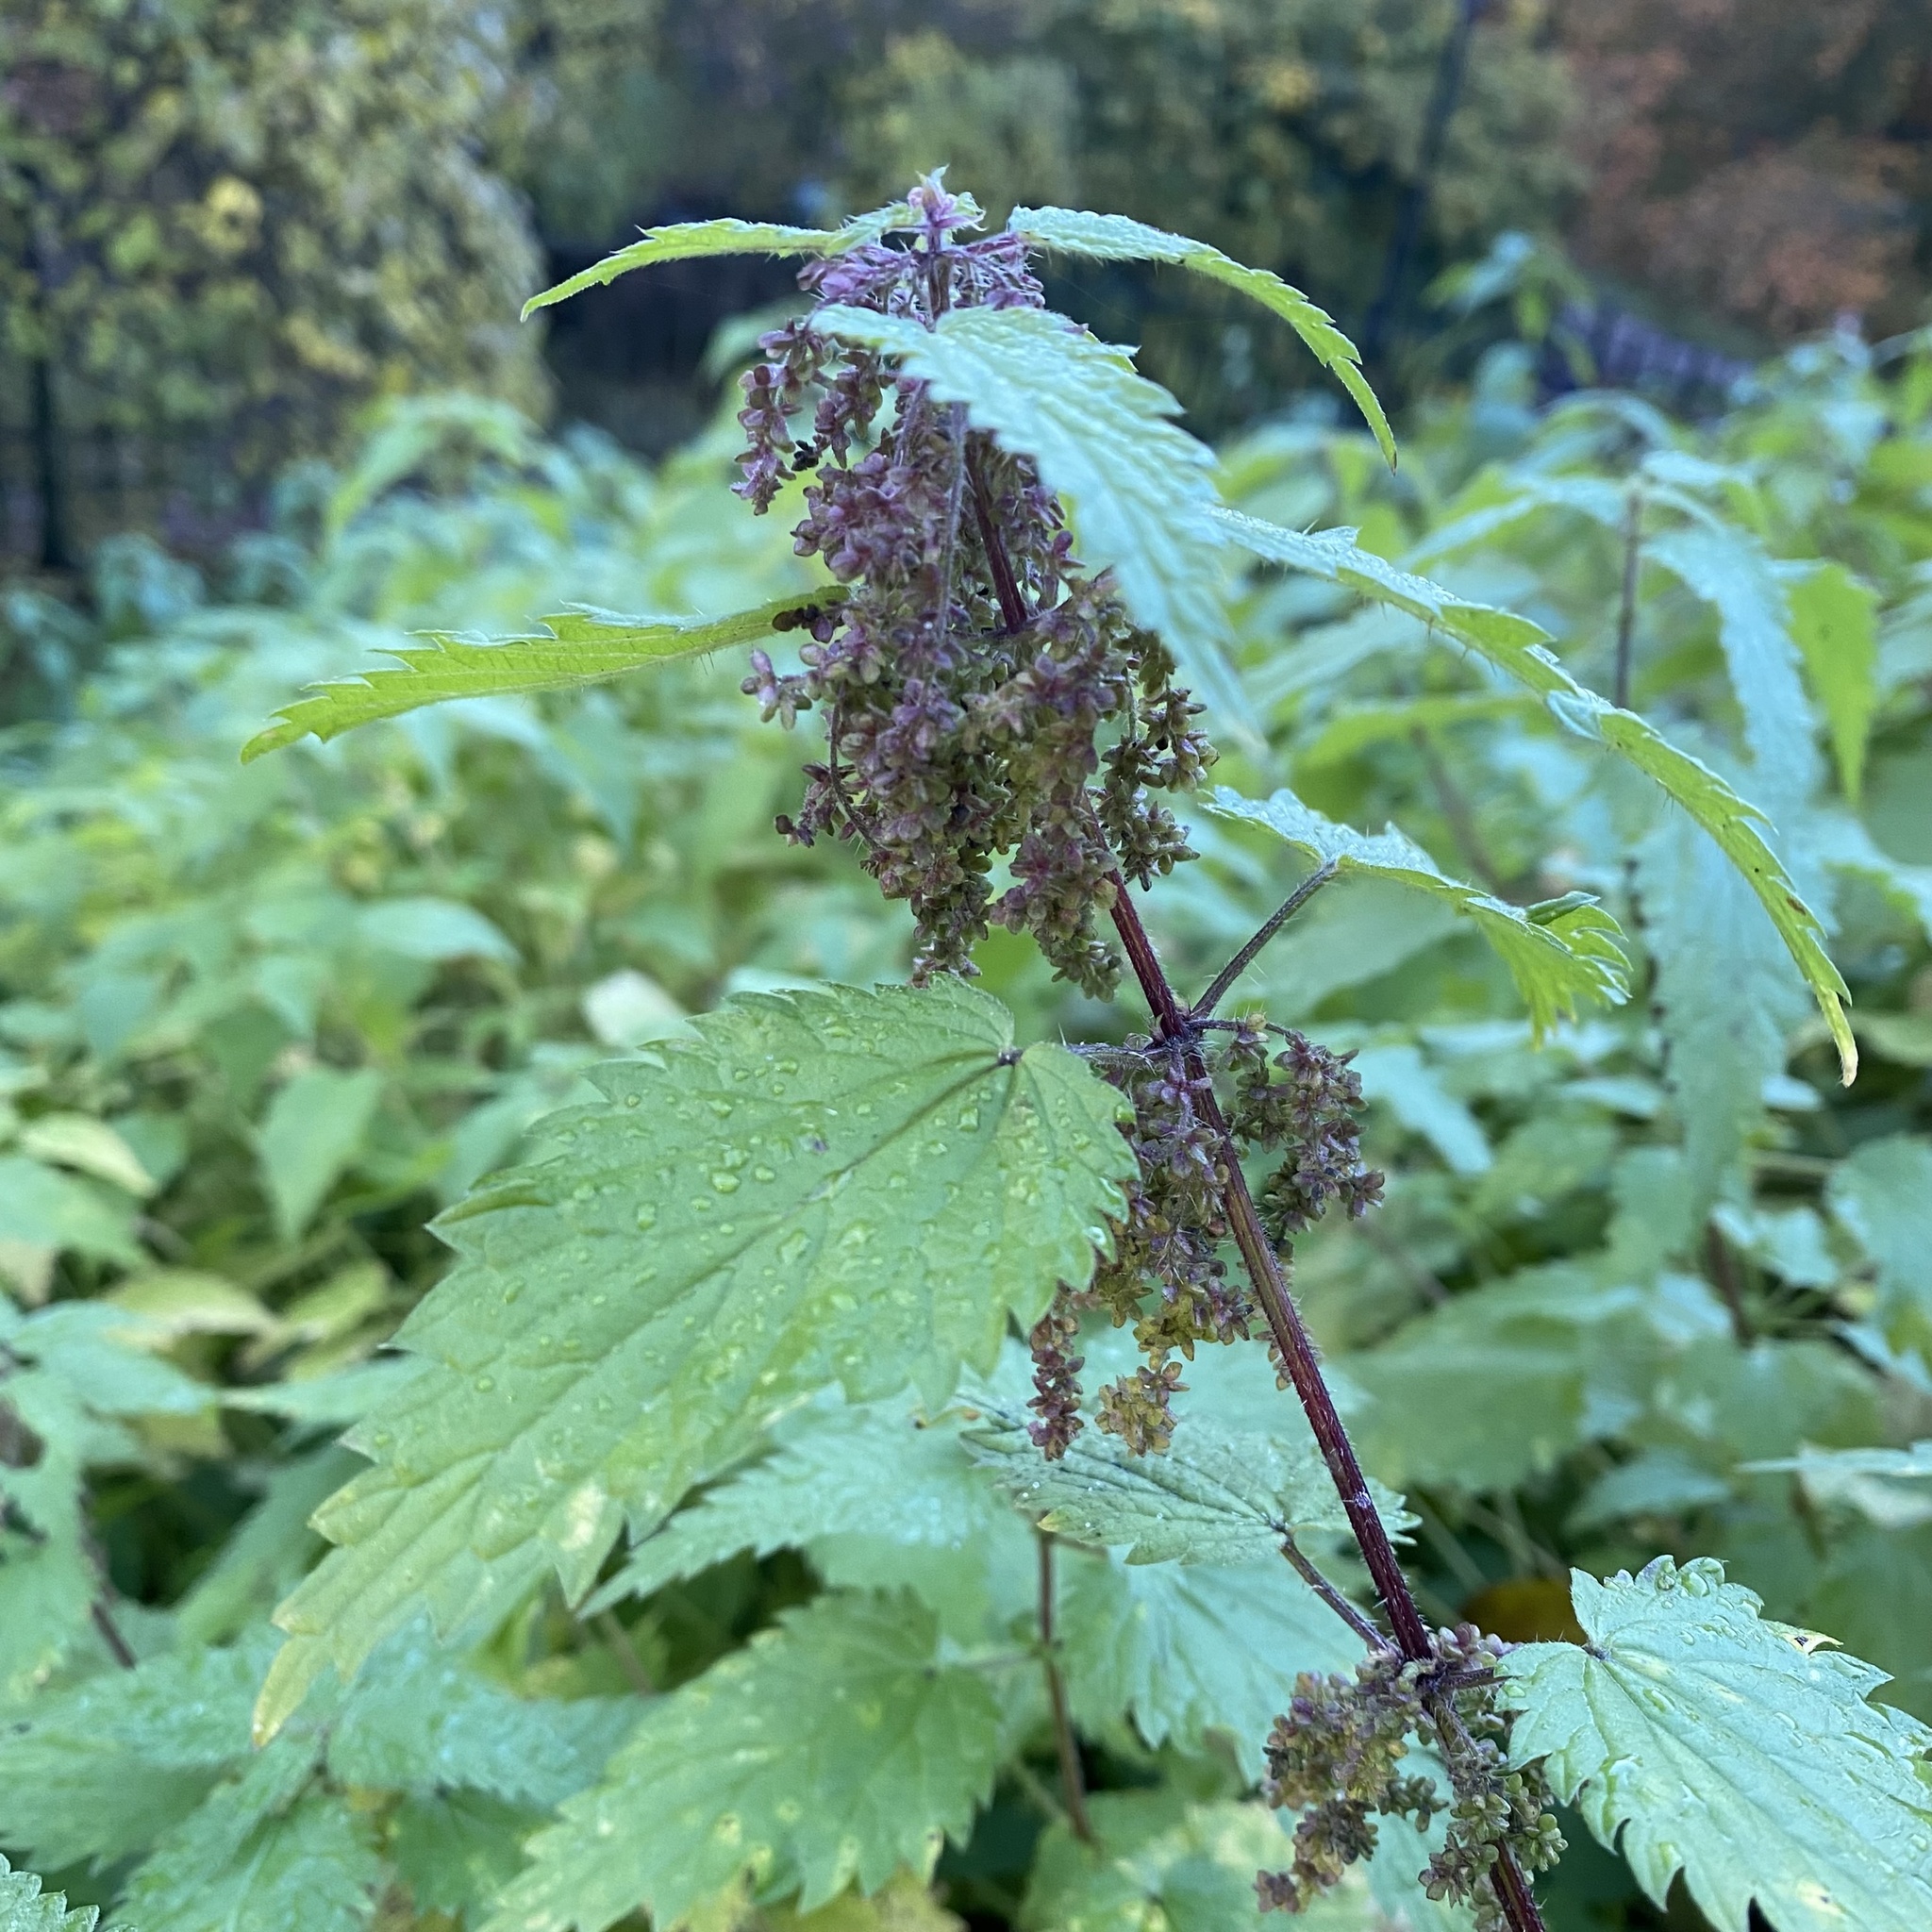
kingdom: Plantae
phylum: Tracheophyta
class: Magnoliopsida
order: Rosales
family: Urticaceae
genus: Urtica
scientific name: Urtica dioica
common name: Common nettle
